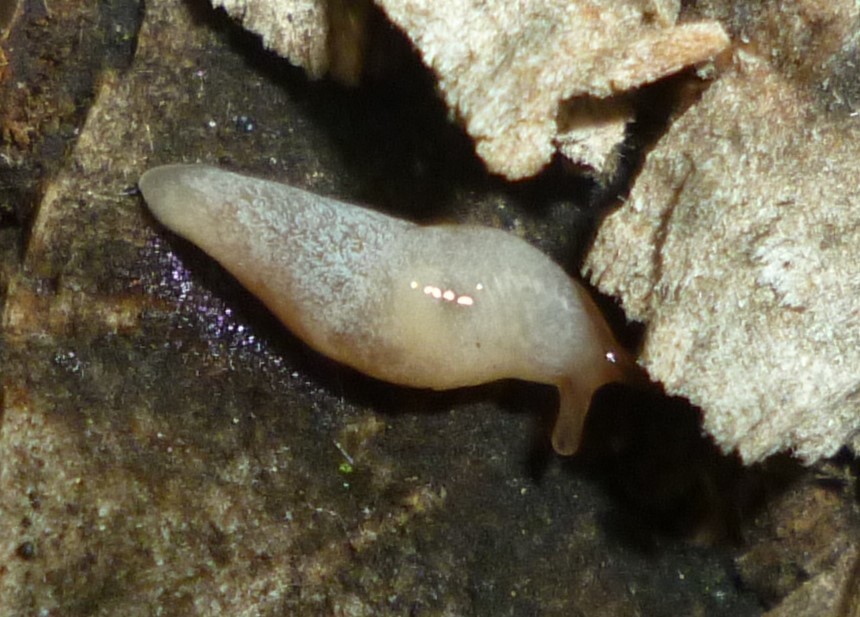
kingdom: Animalia
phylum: Mollusca
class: Gastropoda
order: Stylommatophora
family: Agriolimacidae
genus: Deroceras
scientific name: Deroceras reticulatum
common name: Gray field slug
